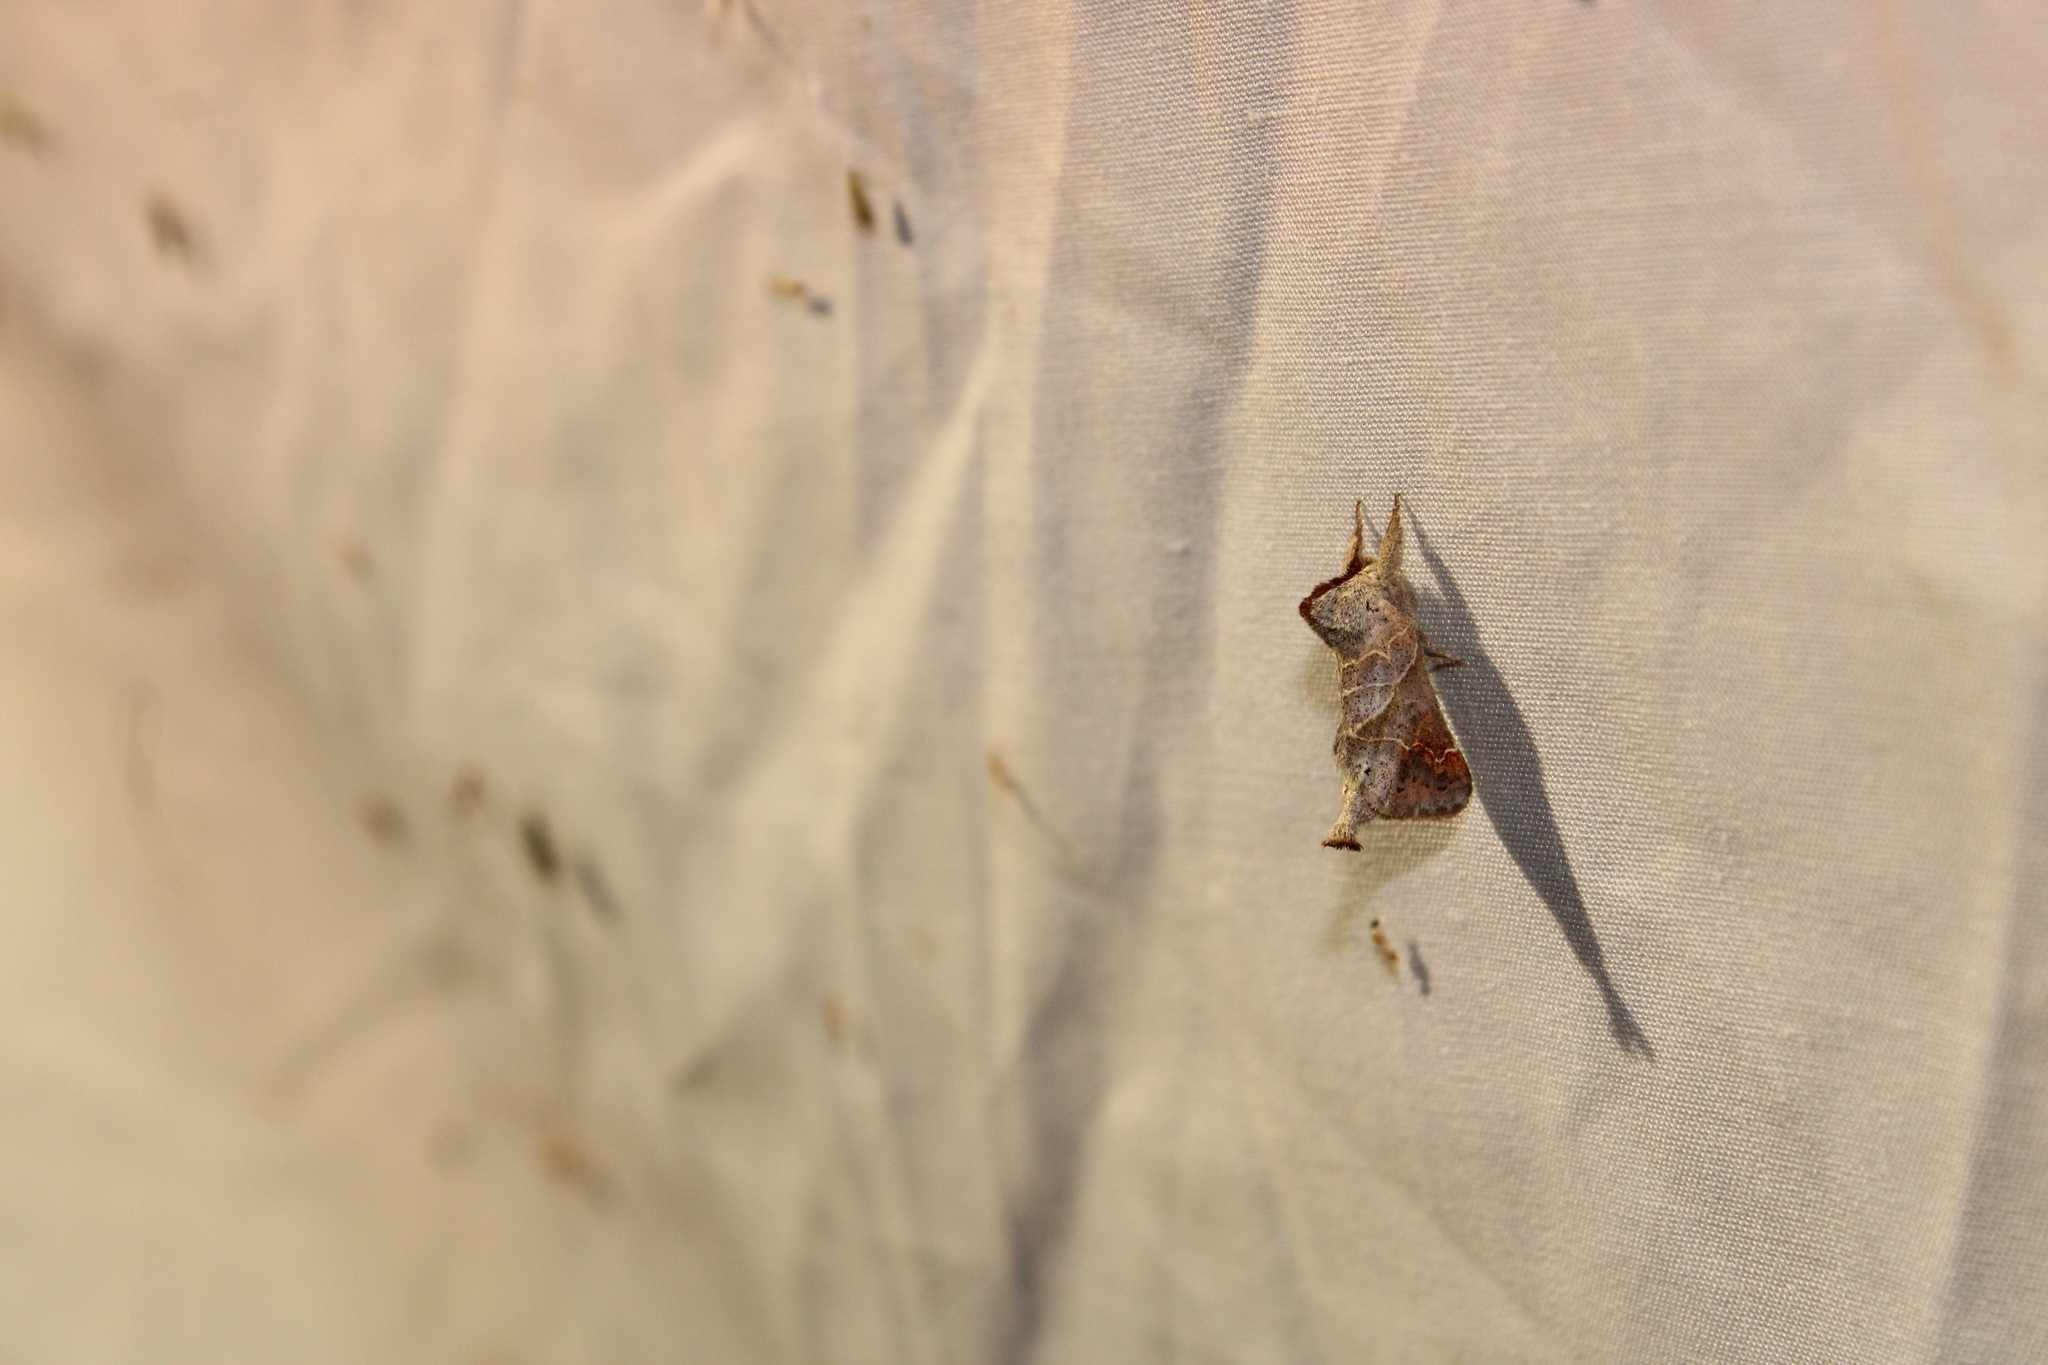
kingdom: Animalia
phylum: Arthropoda
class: Insecta
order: Lepidoptera
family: Notodontidae
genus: Clostera
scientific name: Clostera apicalis
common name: Apical prominent
